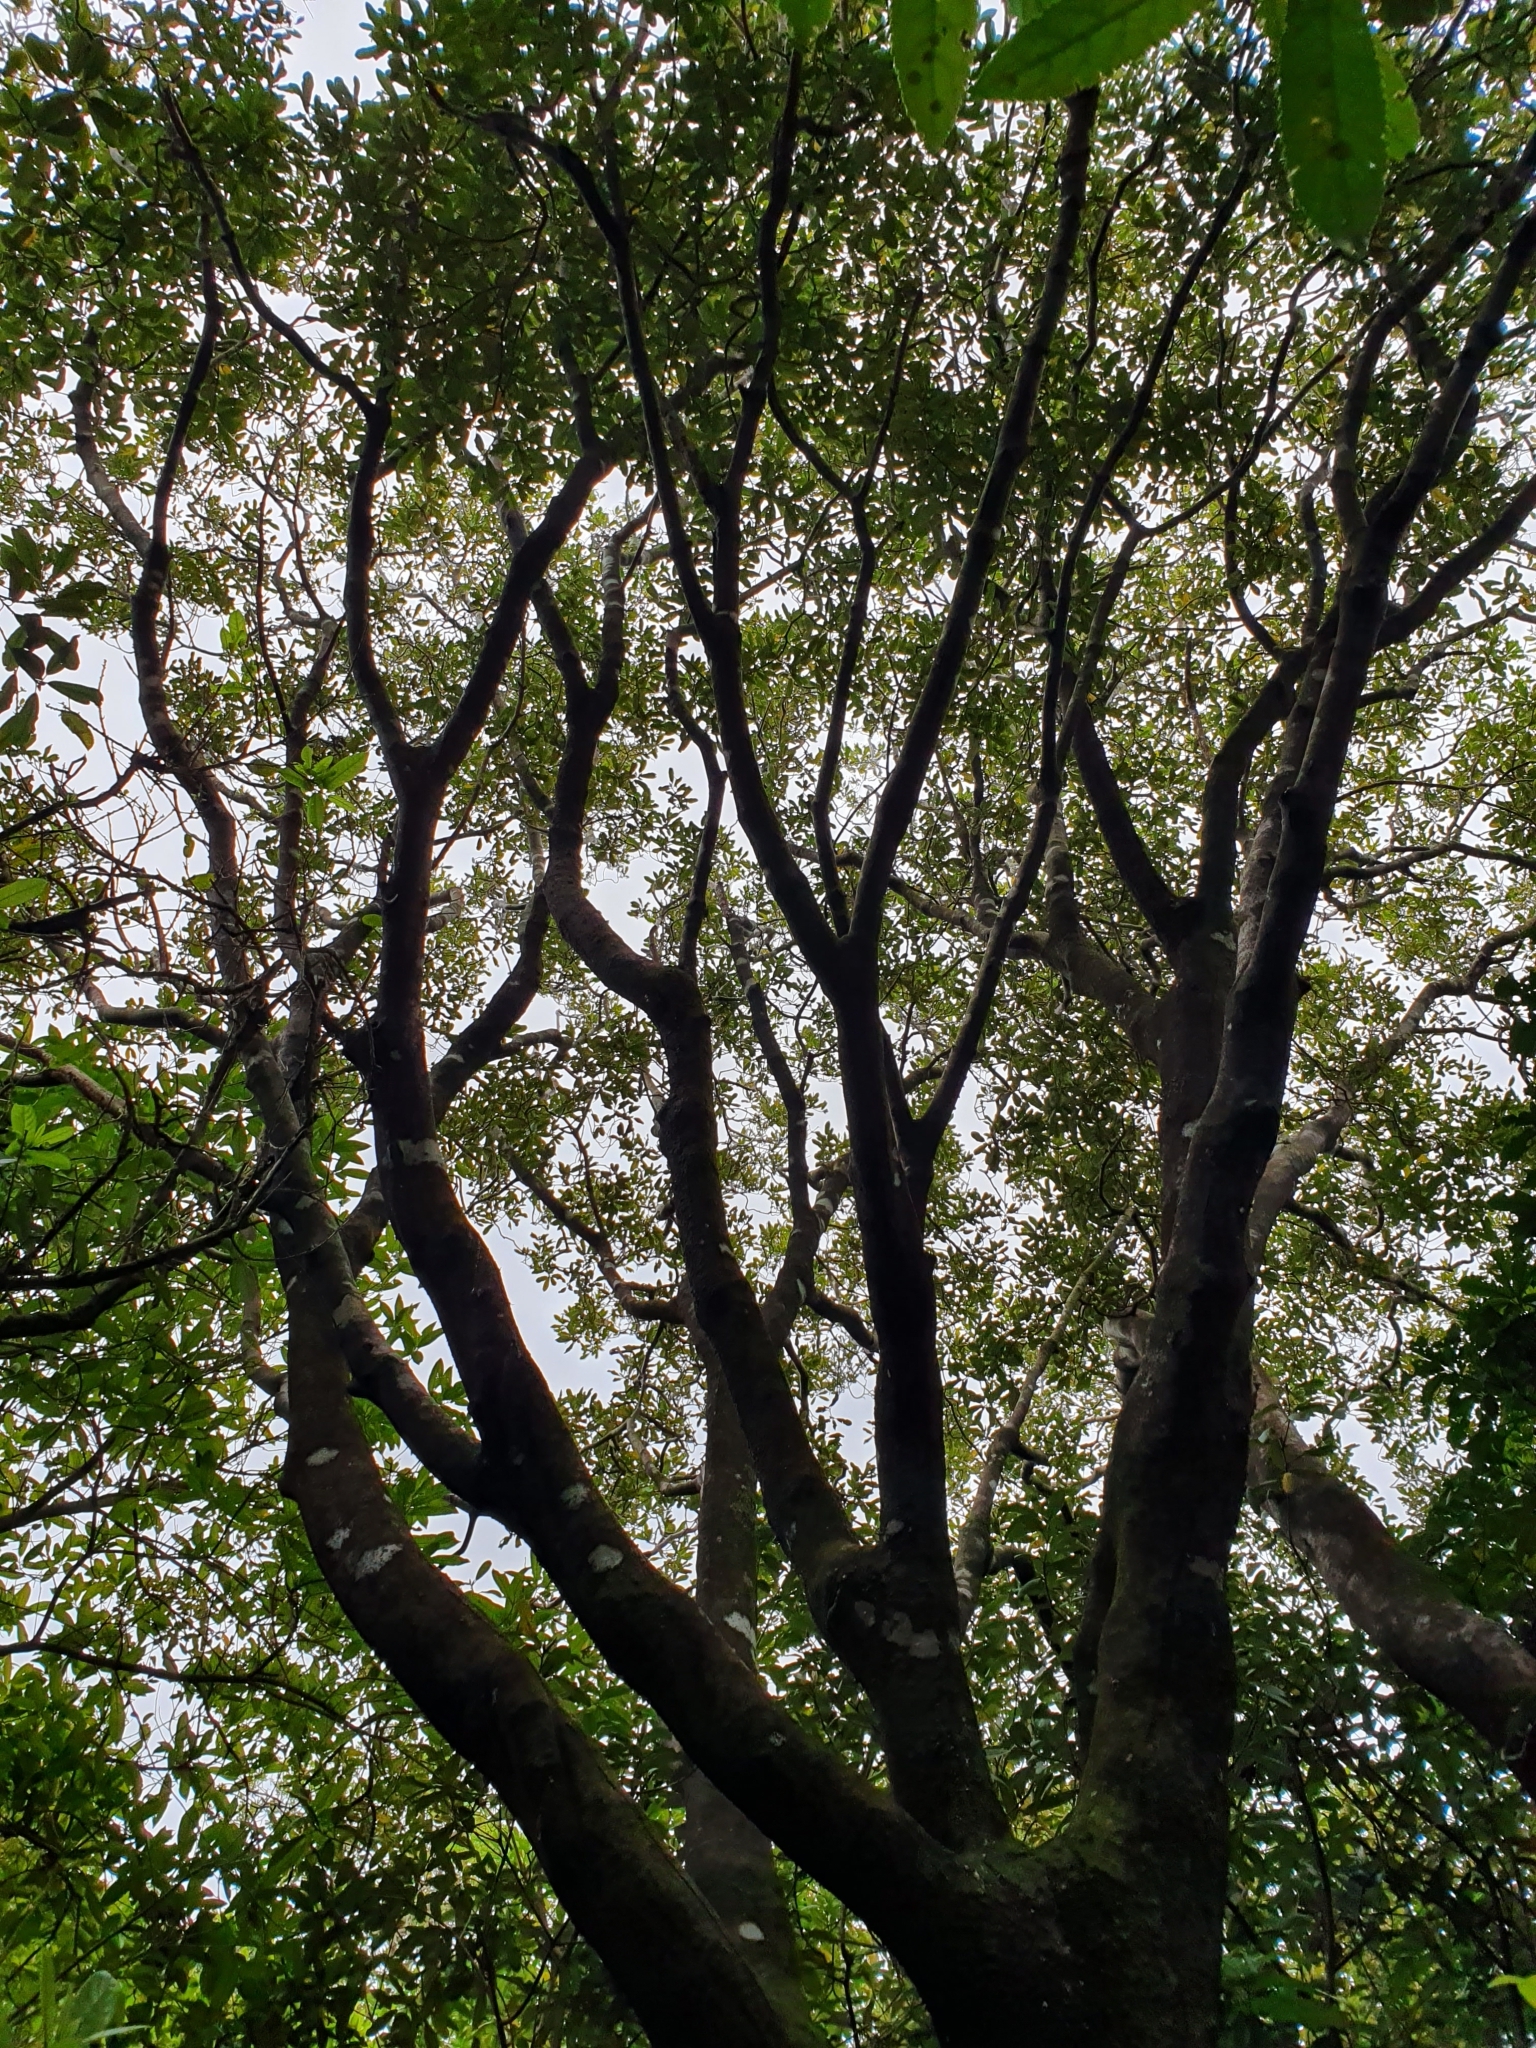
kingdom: Plantae
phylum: Tracheophyta
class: Magnoliopsida
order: Apiales
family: Pittosporaceae
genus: Pittosporum
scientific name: Pittosporum ralphii
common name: Ralph's desertwillow
